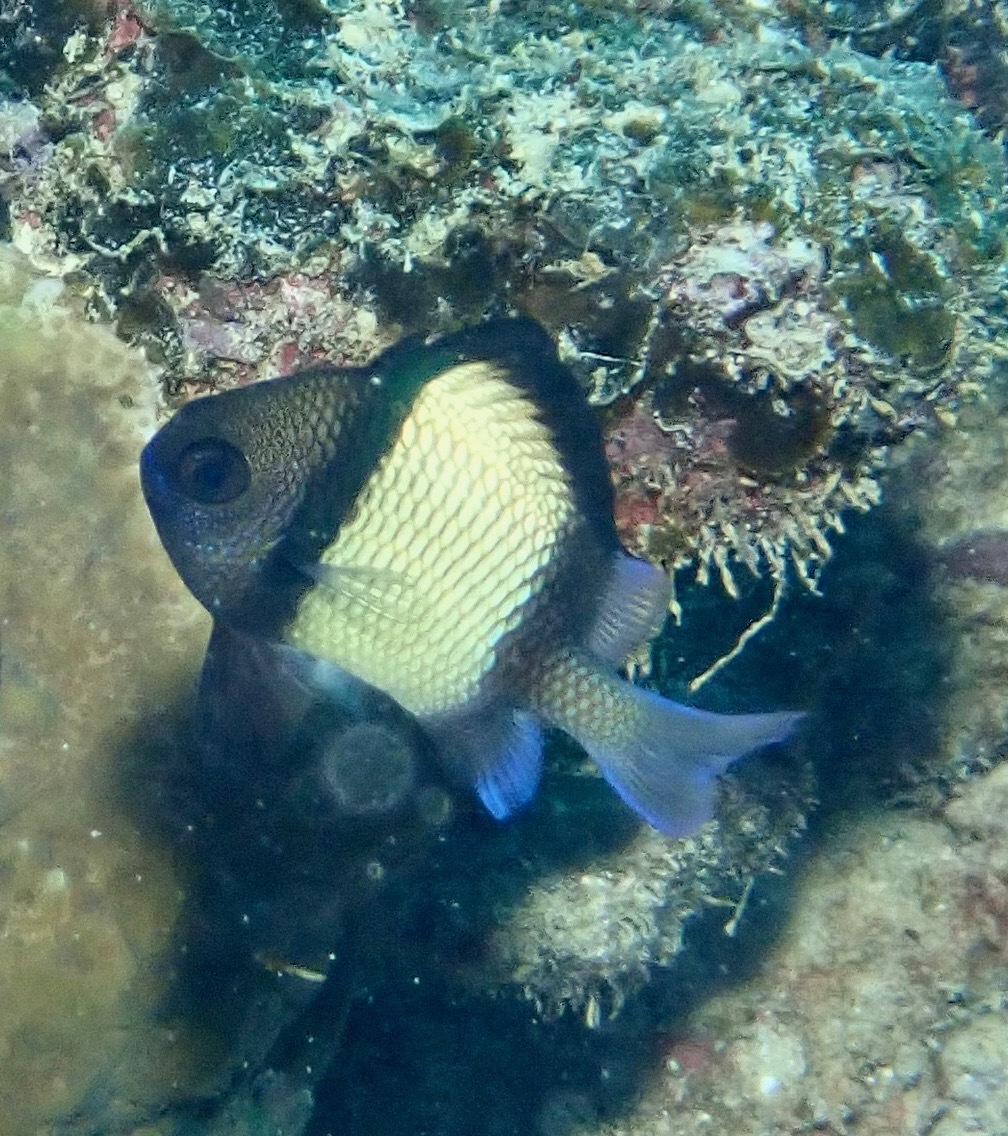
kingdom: Animalia
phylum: Chordata
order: Perciformes
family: Pomacentridae
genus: Dascyllus
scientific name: Dascyllus reticulatus
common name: Reticulated dascyllus
